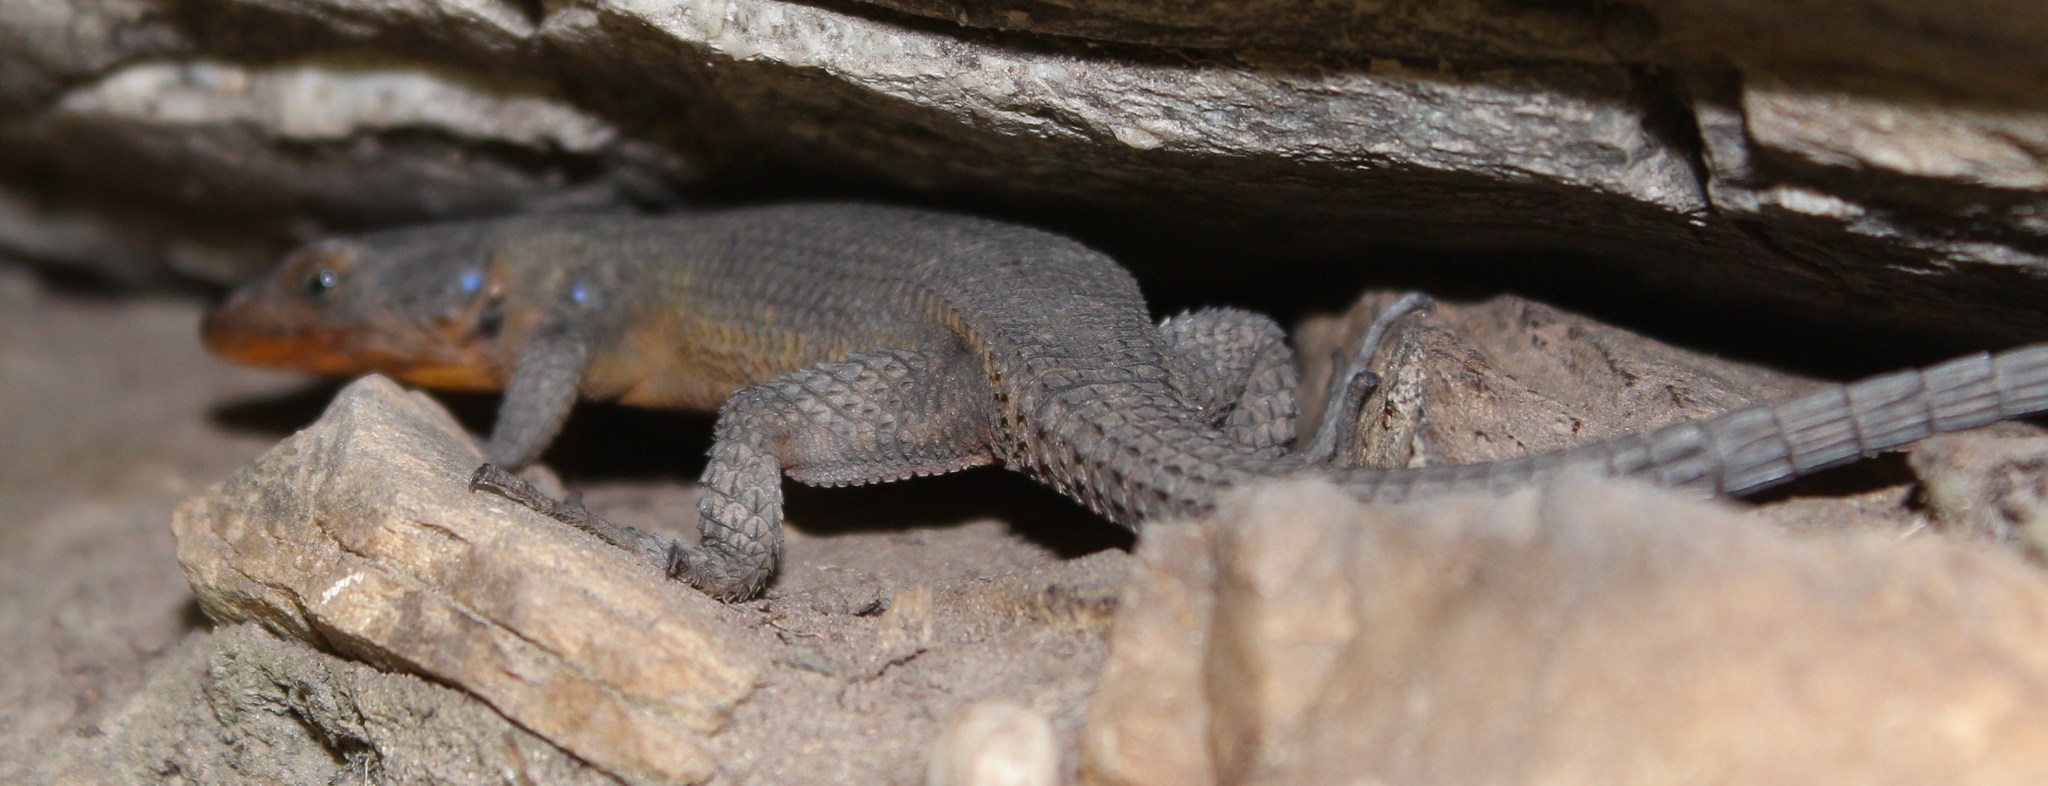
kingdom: Animalia
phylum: Chordata
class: Squamata
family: Cordylidae
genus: Ninurta
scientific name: Ninurta coeruleopunctatus
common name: Blue-spotted girdled lizard
